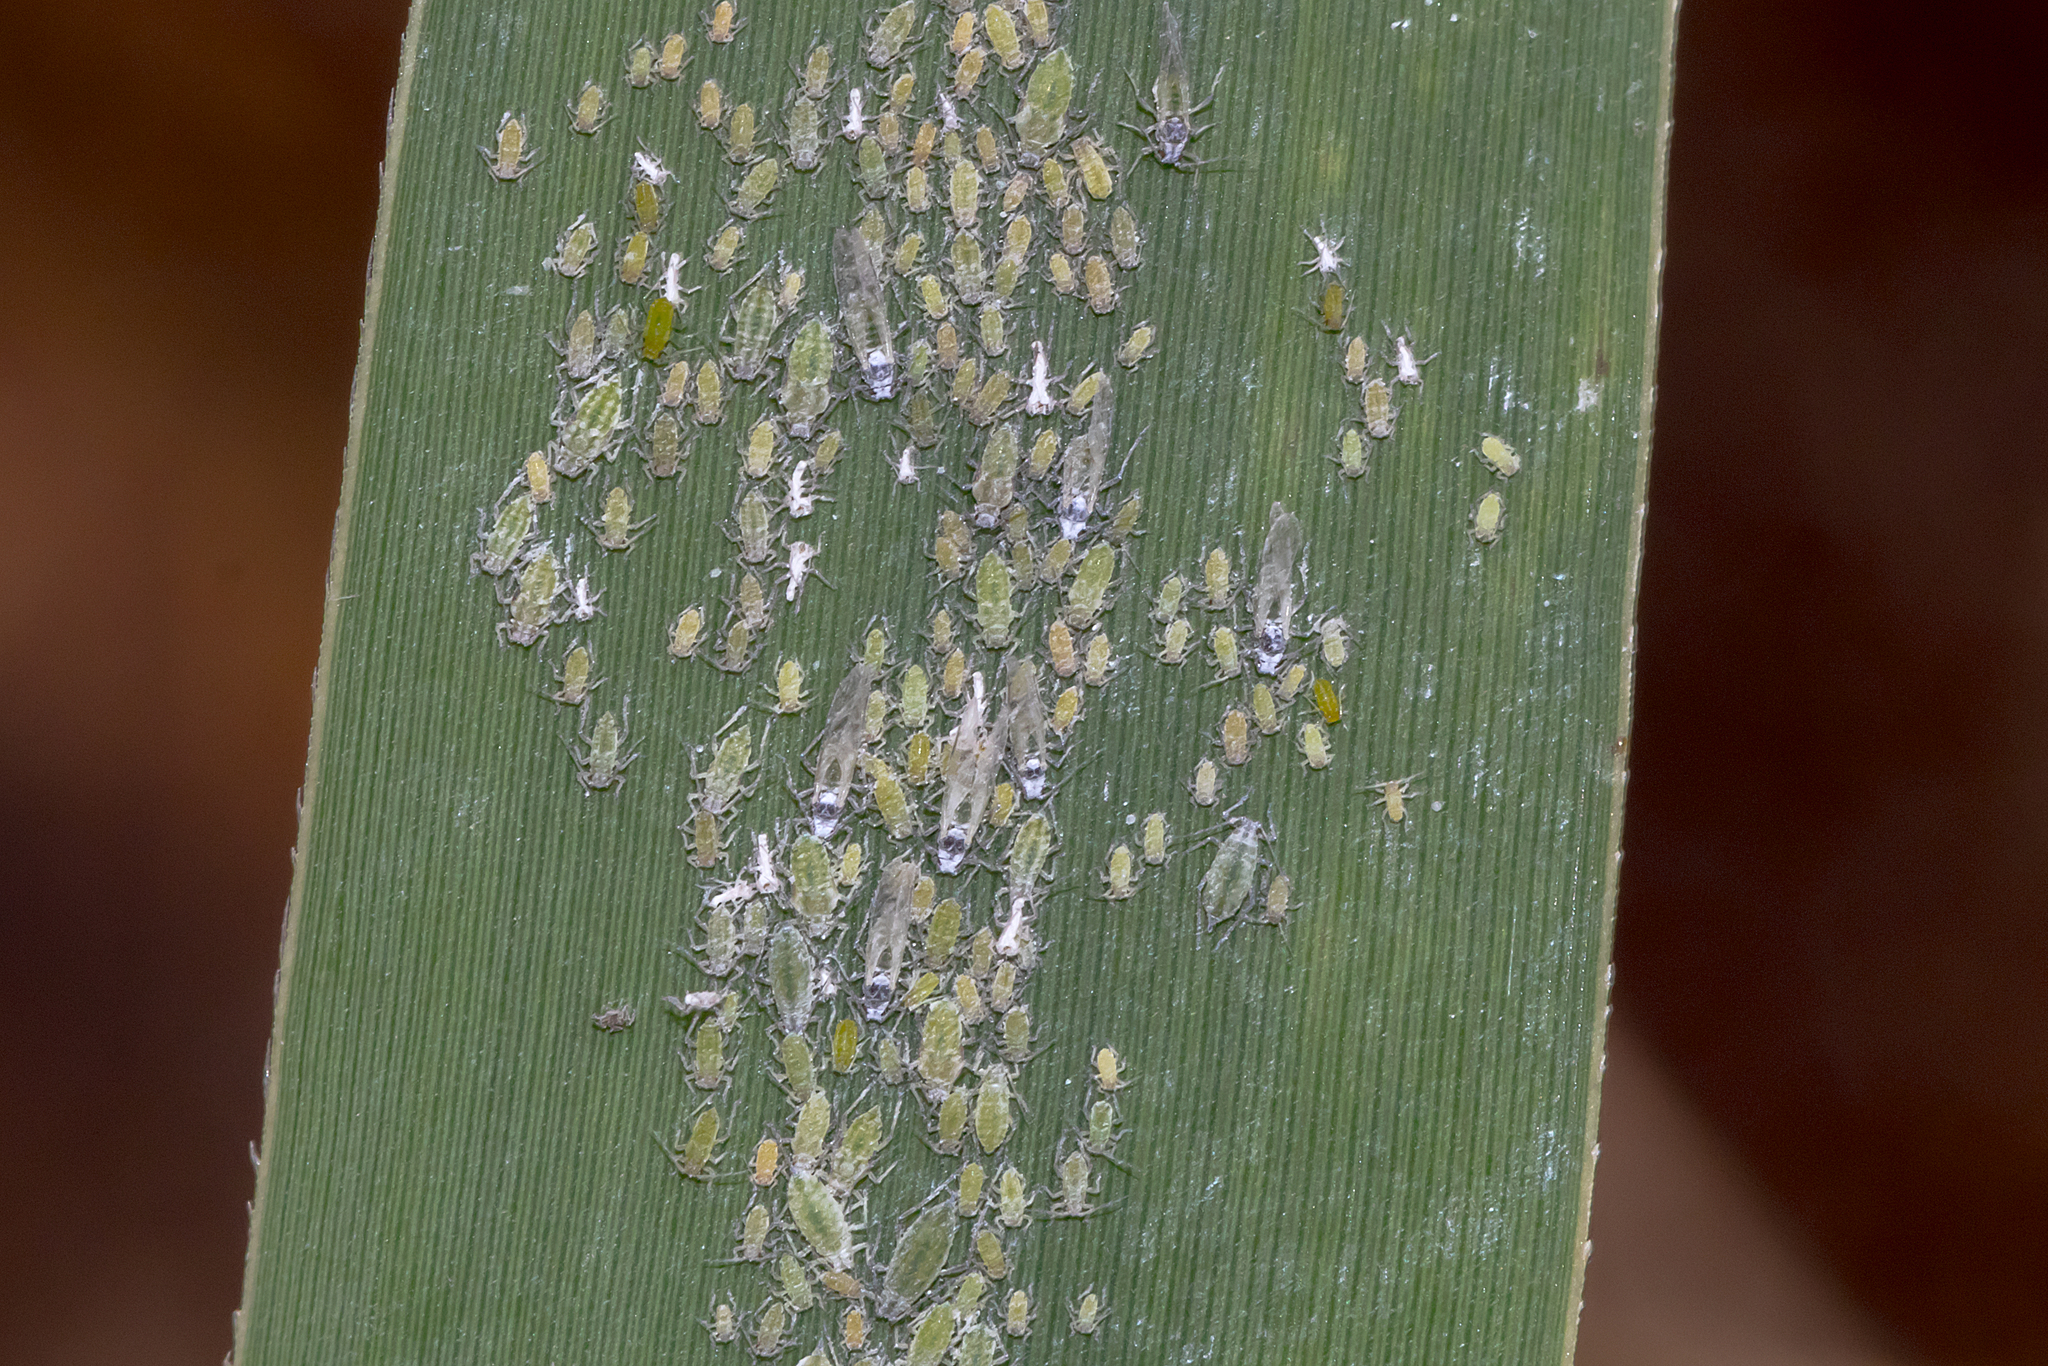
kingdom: Animalia
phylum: Arthropoda
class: Insecta
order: Hemiptera
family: Aphididae
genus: Hyalopterus
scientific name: Hyalopterus
